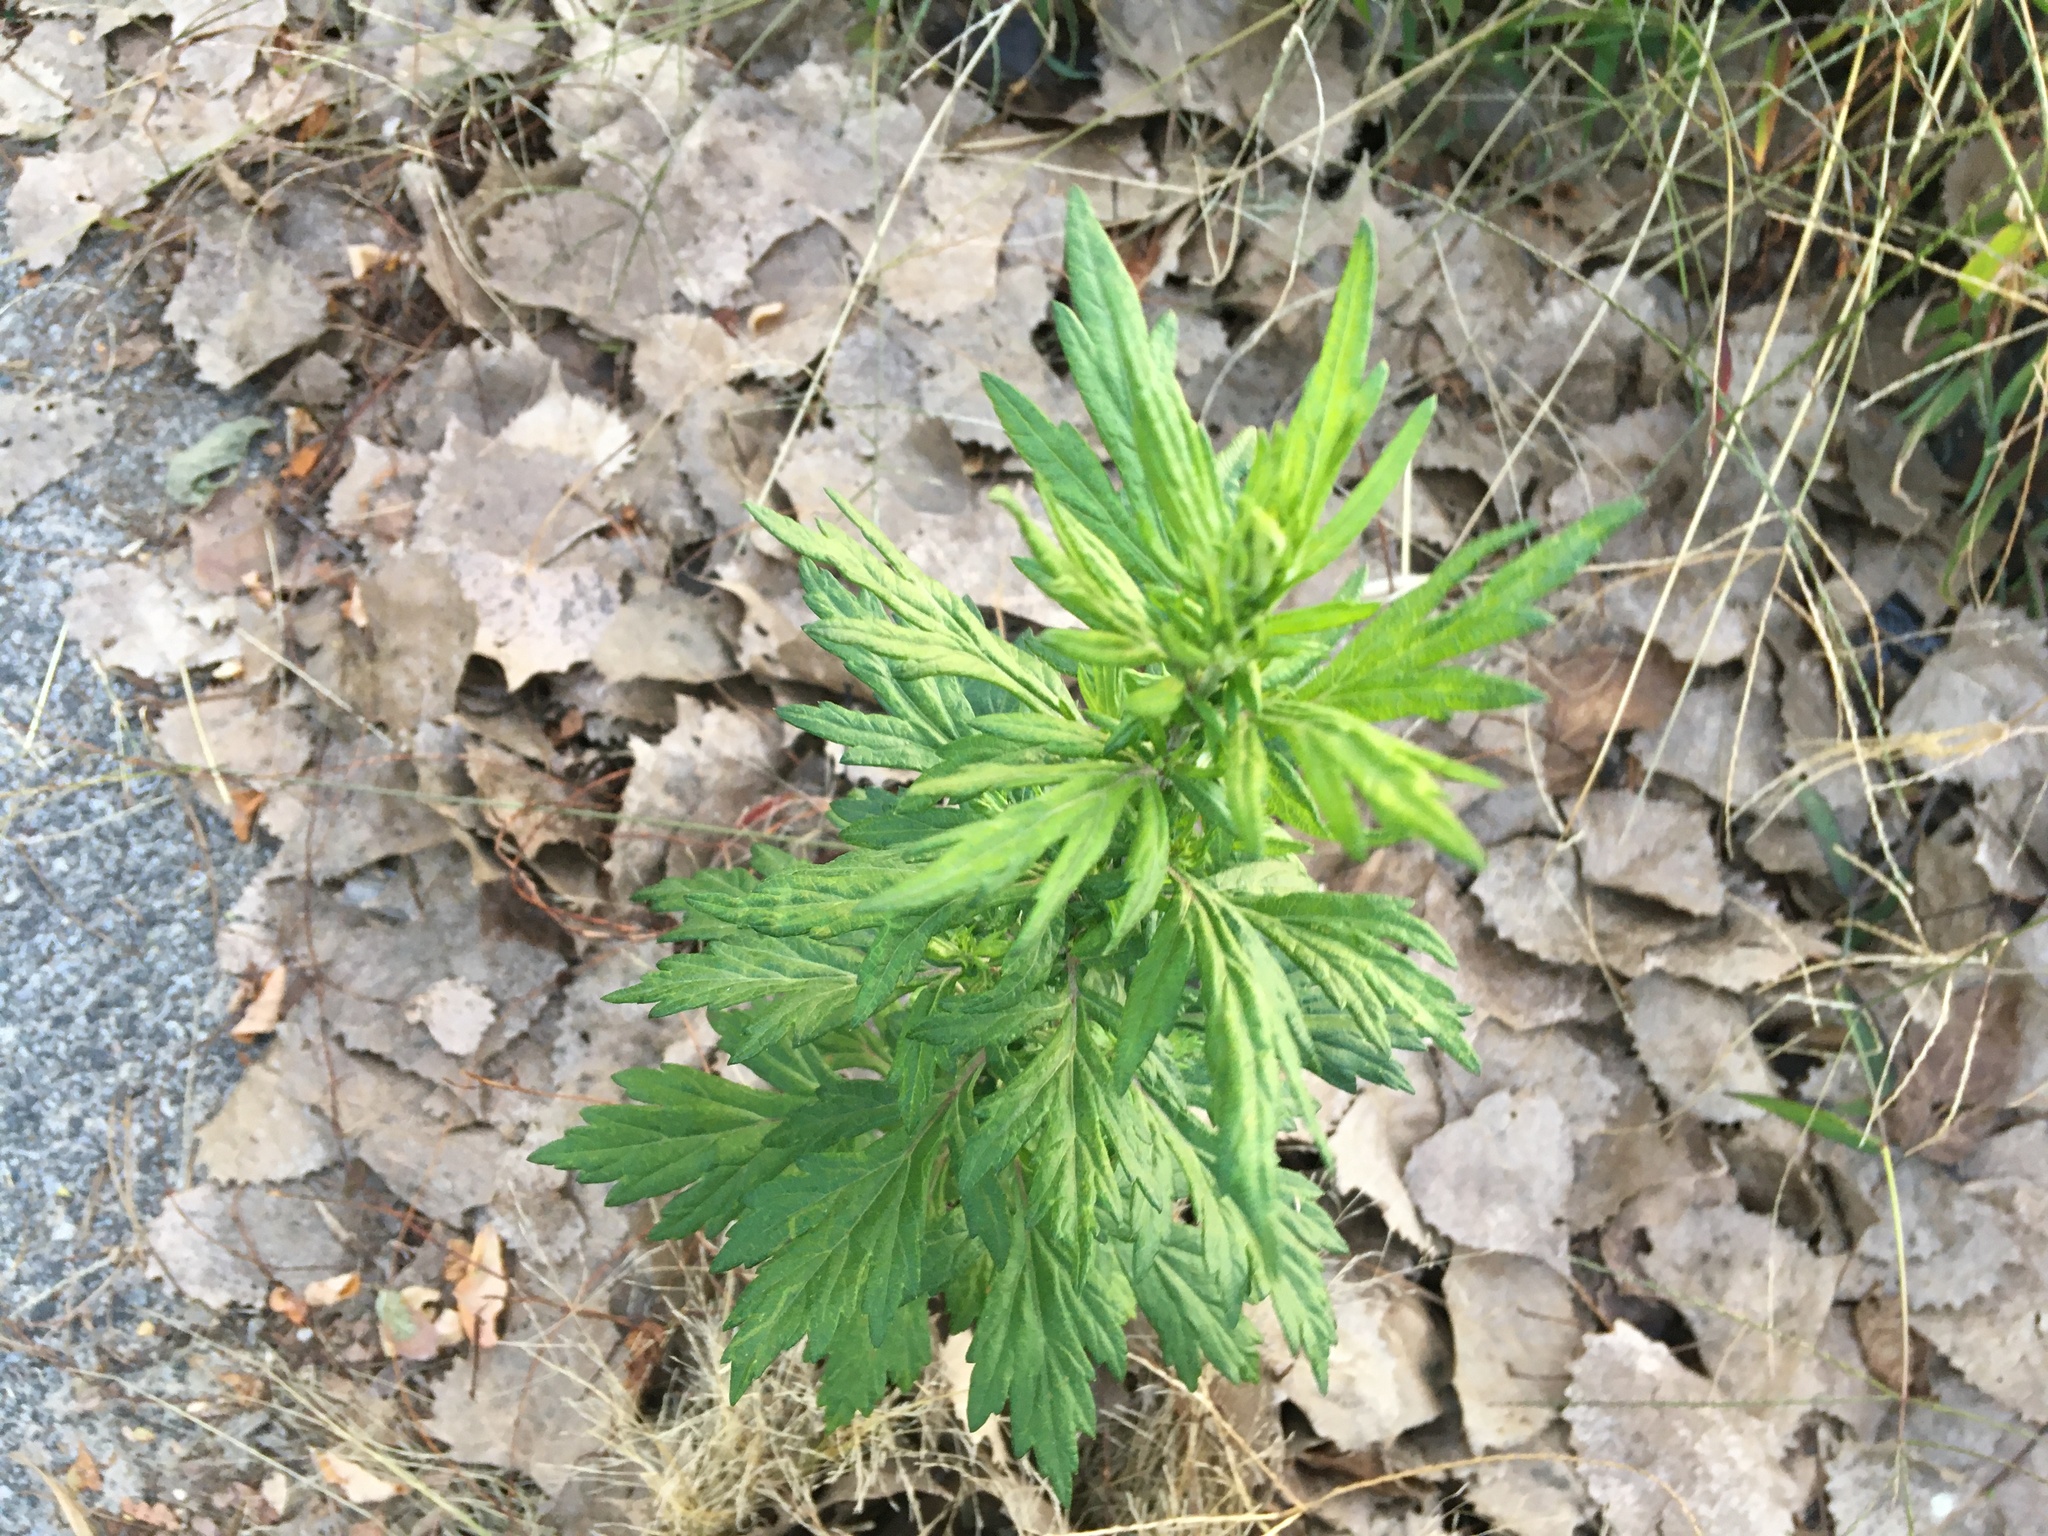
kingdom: Plantae
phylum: Tracheophyta
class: Magnoliopsida
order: Asterales
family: Asteraceae
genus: Artemisia
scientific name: Artemisia vulgaris
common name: Mugwort
